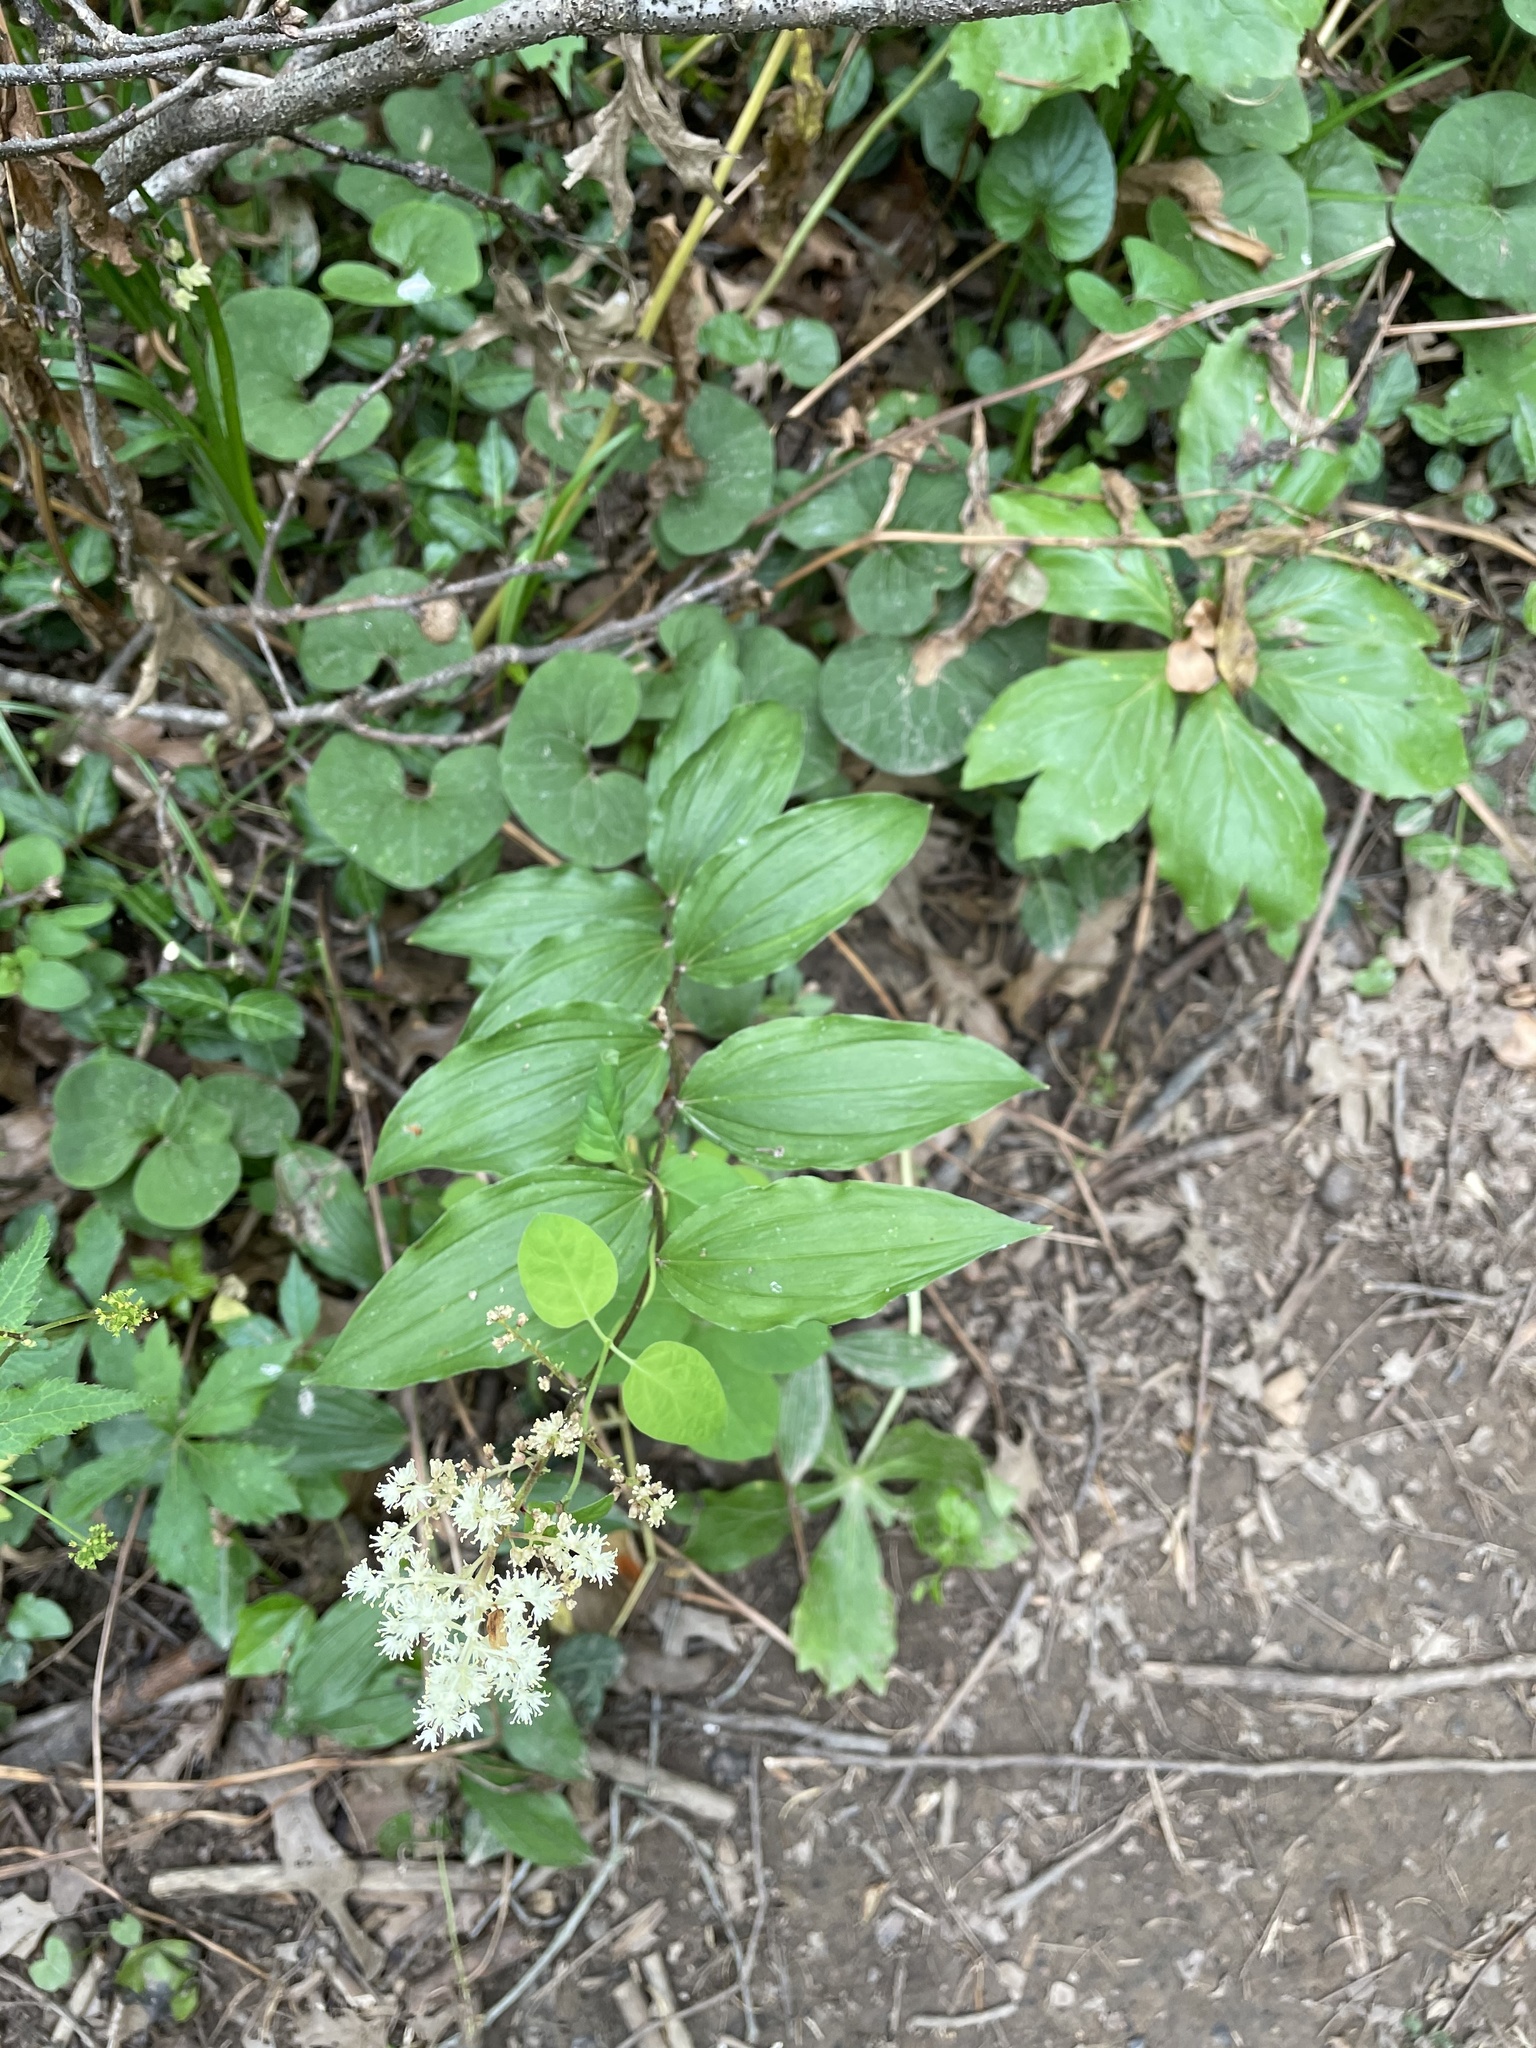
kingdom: Plantae
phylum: Tracheophyta
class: Liliopsida
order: Asparagales
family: Asparagaceae
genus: Maianthemum
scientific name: Maianthemum racemosum
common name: False spikenard
